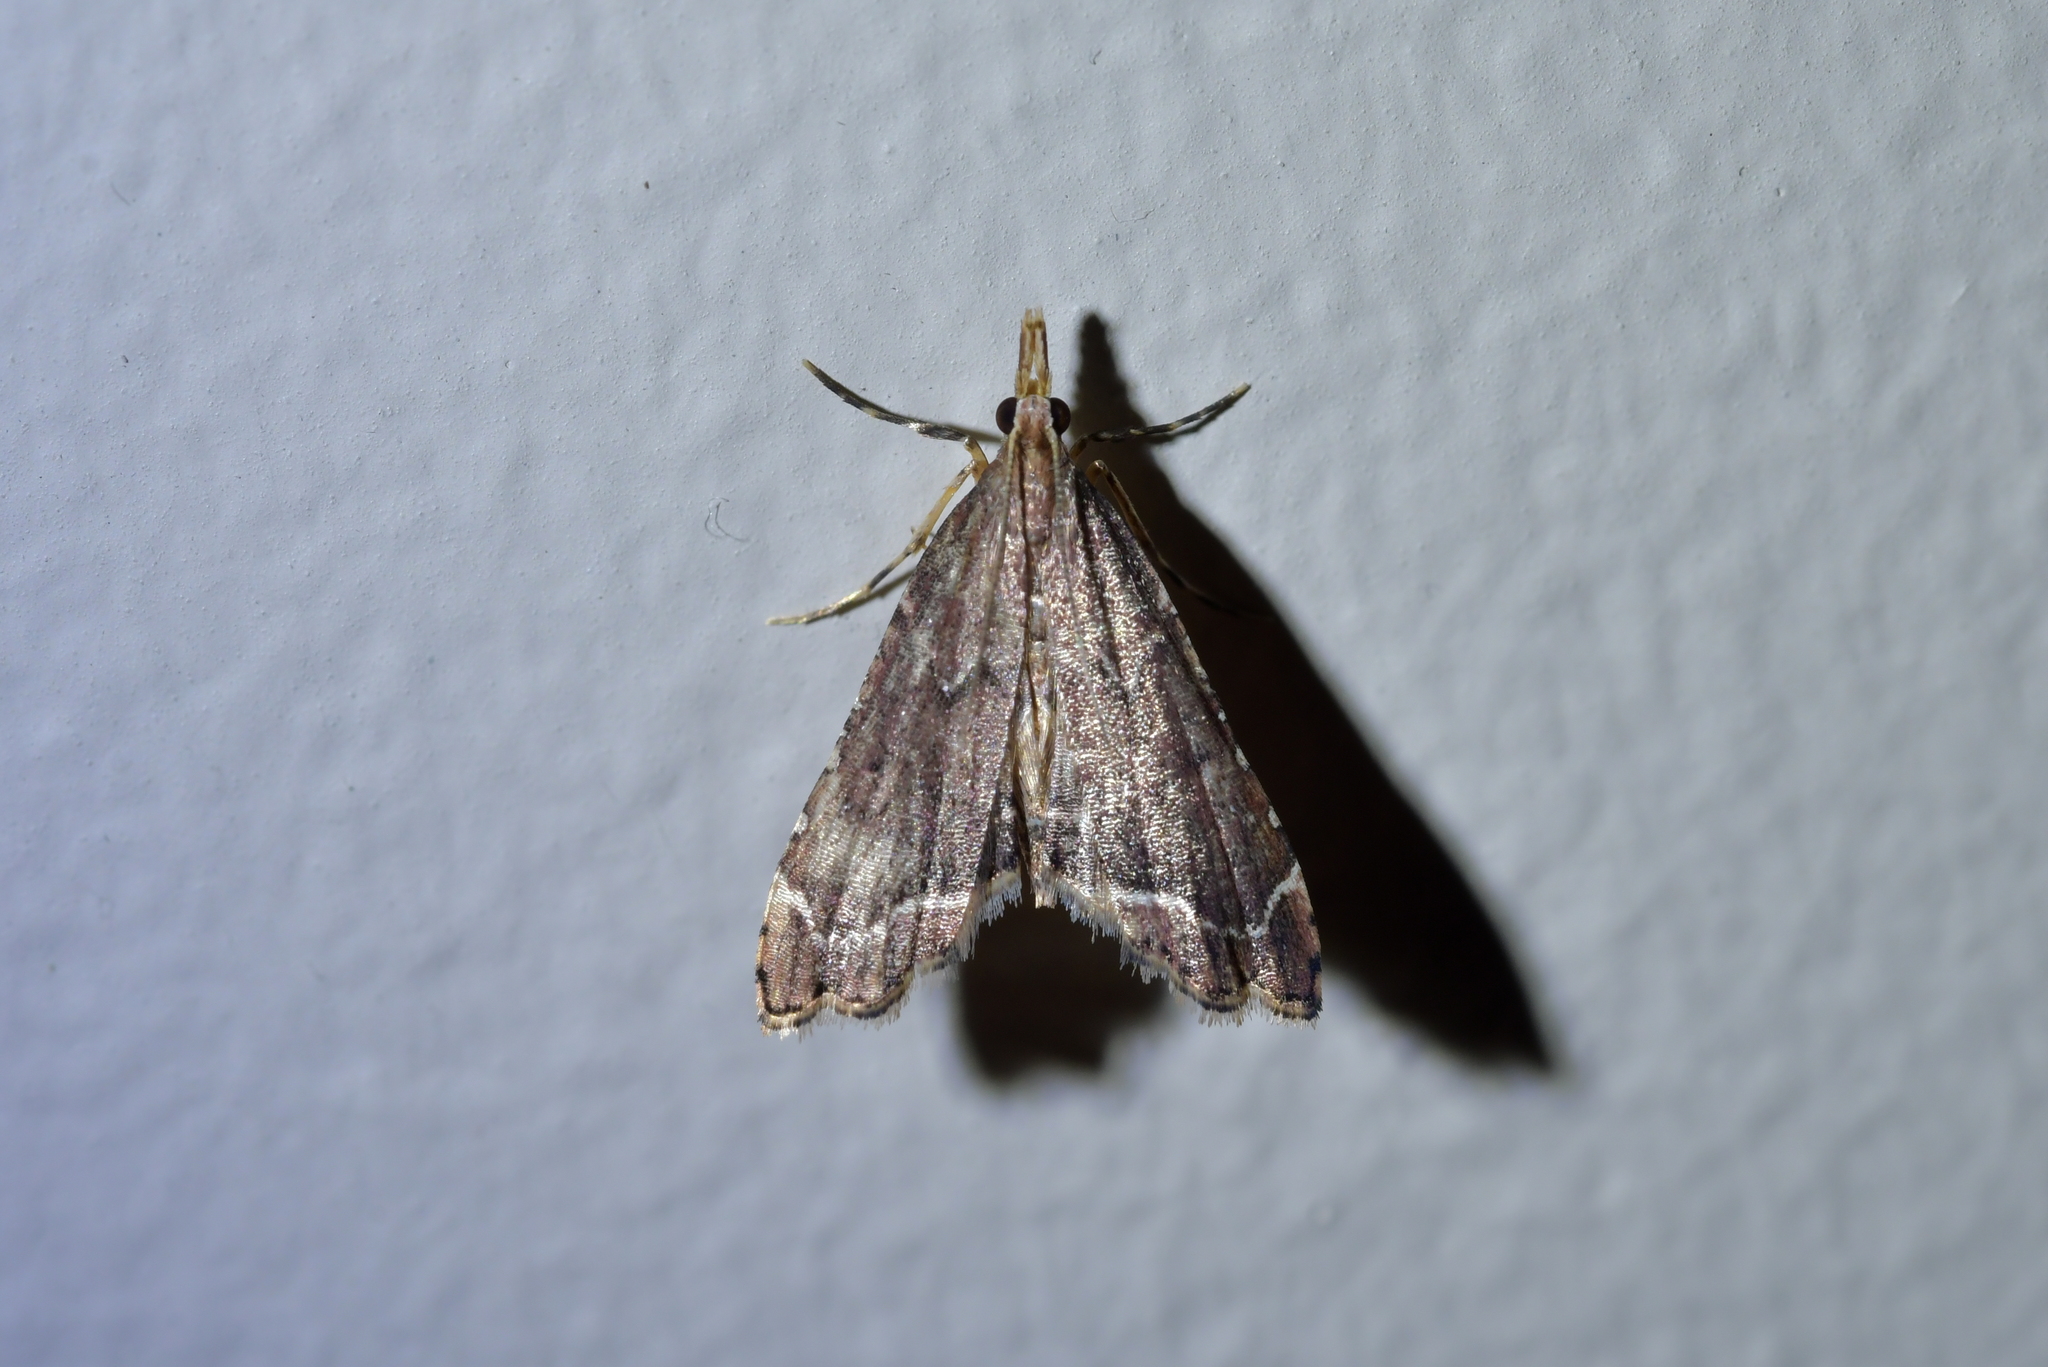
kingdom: Animalia
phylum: Arthropoda
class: Insecta
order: Lepidoptera
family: Crambidae
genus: Diplopseustis
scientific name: Diplopseustis perieresalis
